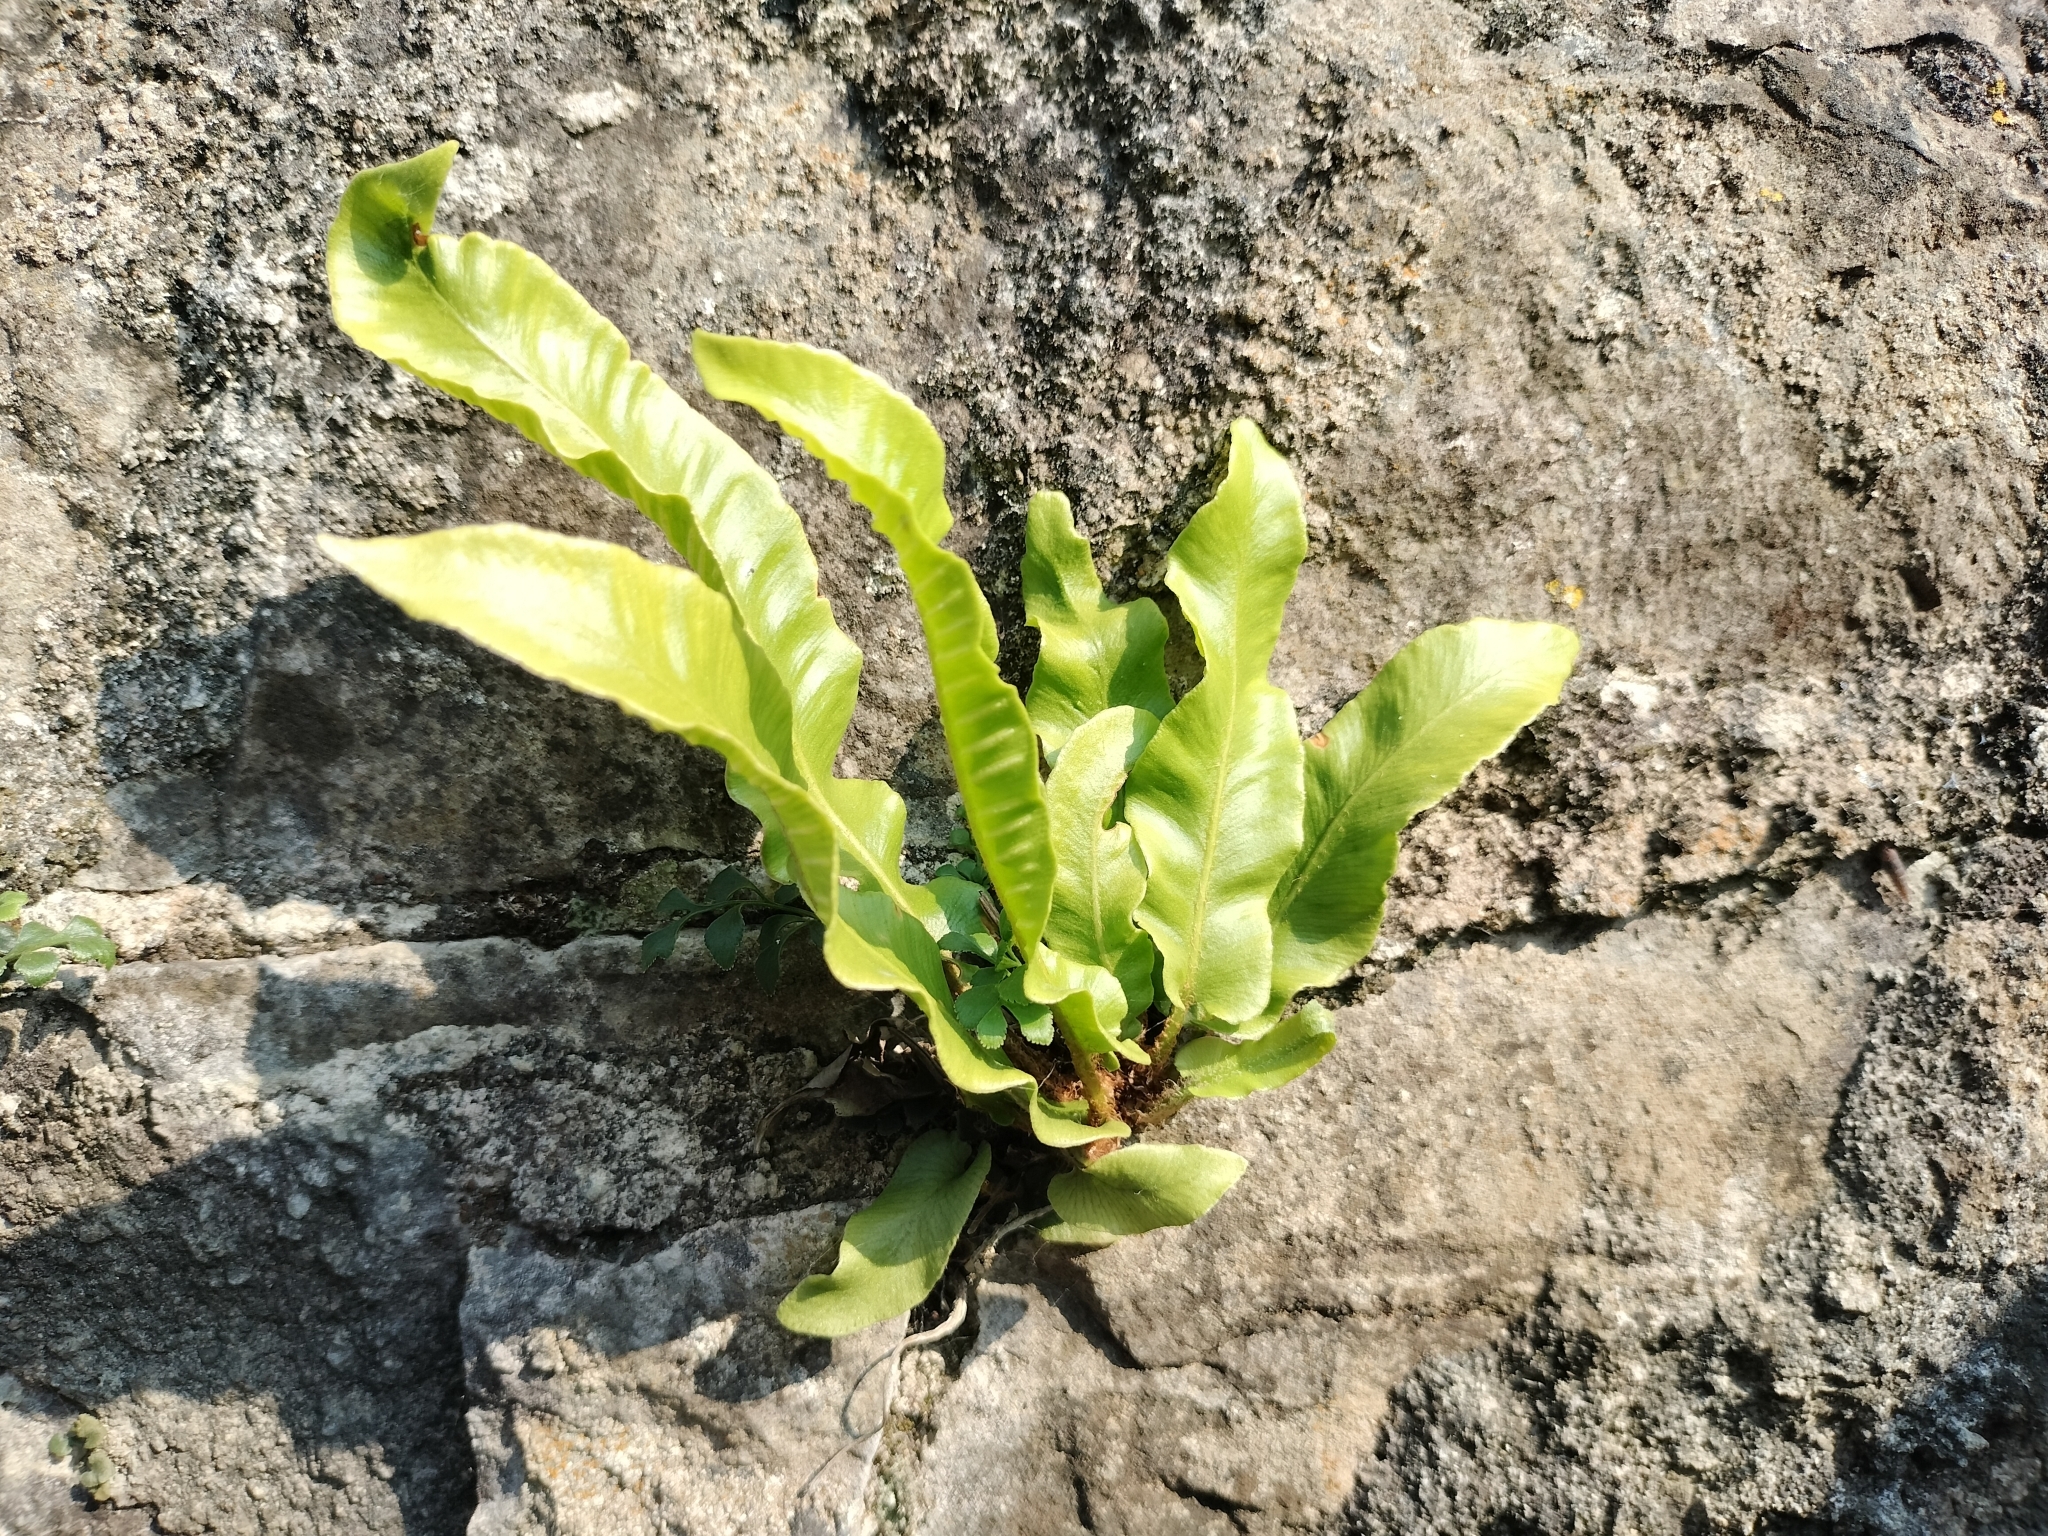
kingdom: Plantae
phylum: Tracheophyta
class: Polypodiopsida
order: Polypodiales
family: Aspleniaceae
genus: Asplenium
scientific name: Asplenium scolopendrium
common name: Hart's-tongue fern
